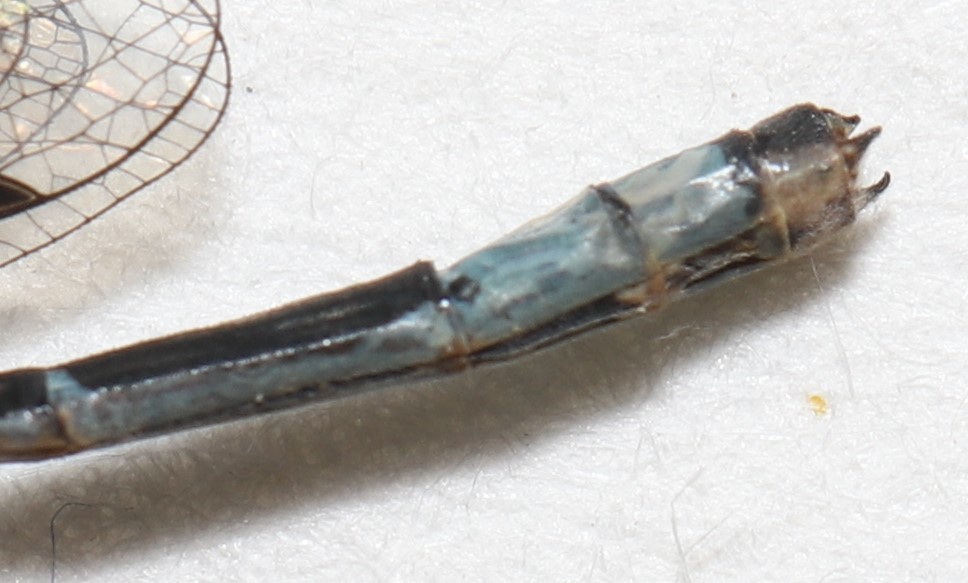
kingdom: Animalia
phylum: Arthropoda
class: Insecta
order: Odonata
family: Coenagrionidae
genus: Enallagma
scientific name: Enallagma hageni
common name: Hagen's bluet
